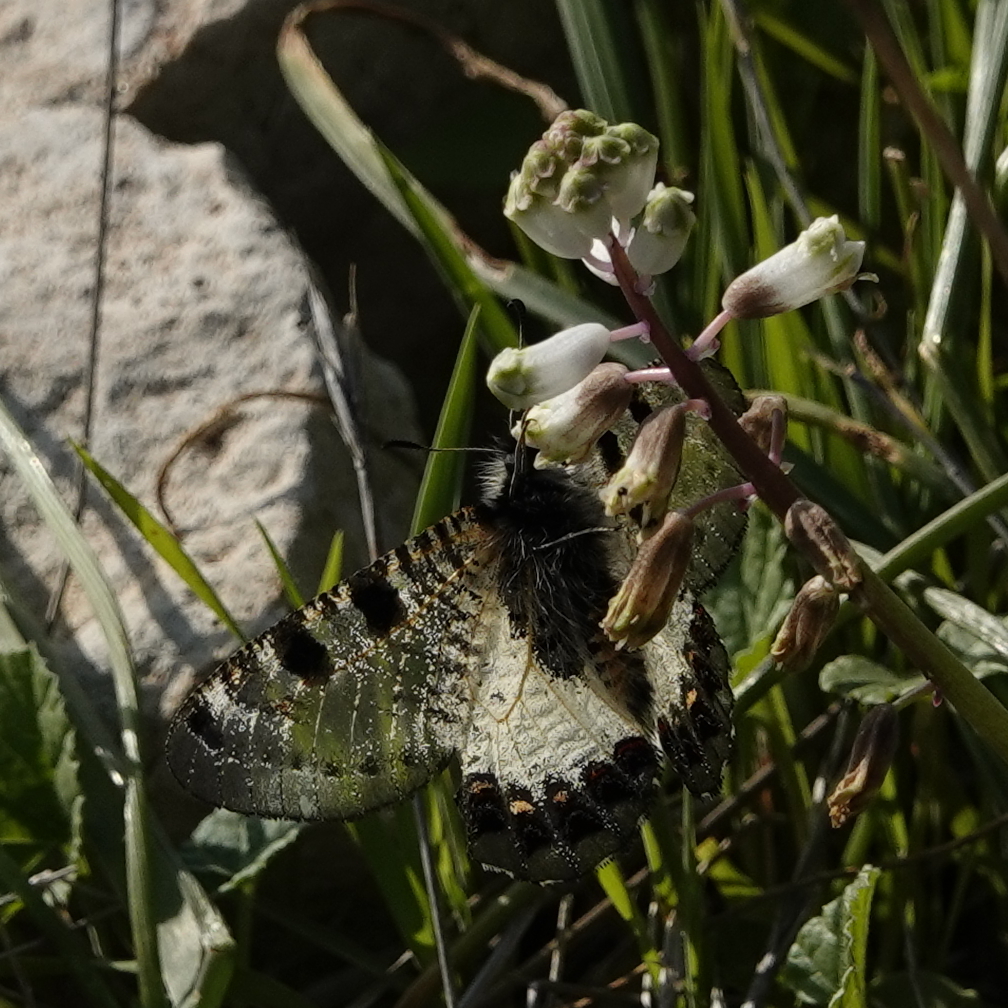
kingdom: Animalia
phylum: Arthropoda
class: Insecta
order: Lepidoptera
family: Papilionidae
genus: Archon
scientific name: Archon apollinus
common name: False apollo
